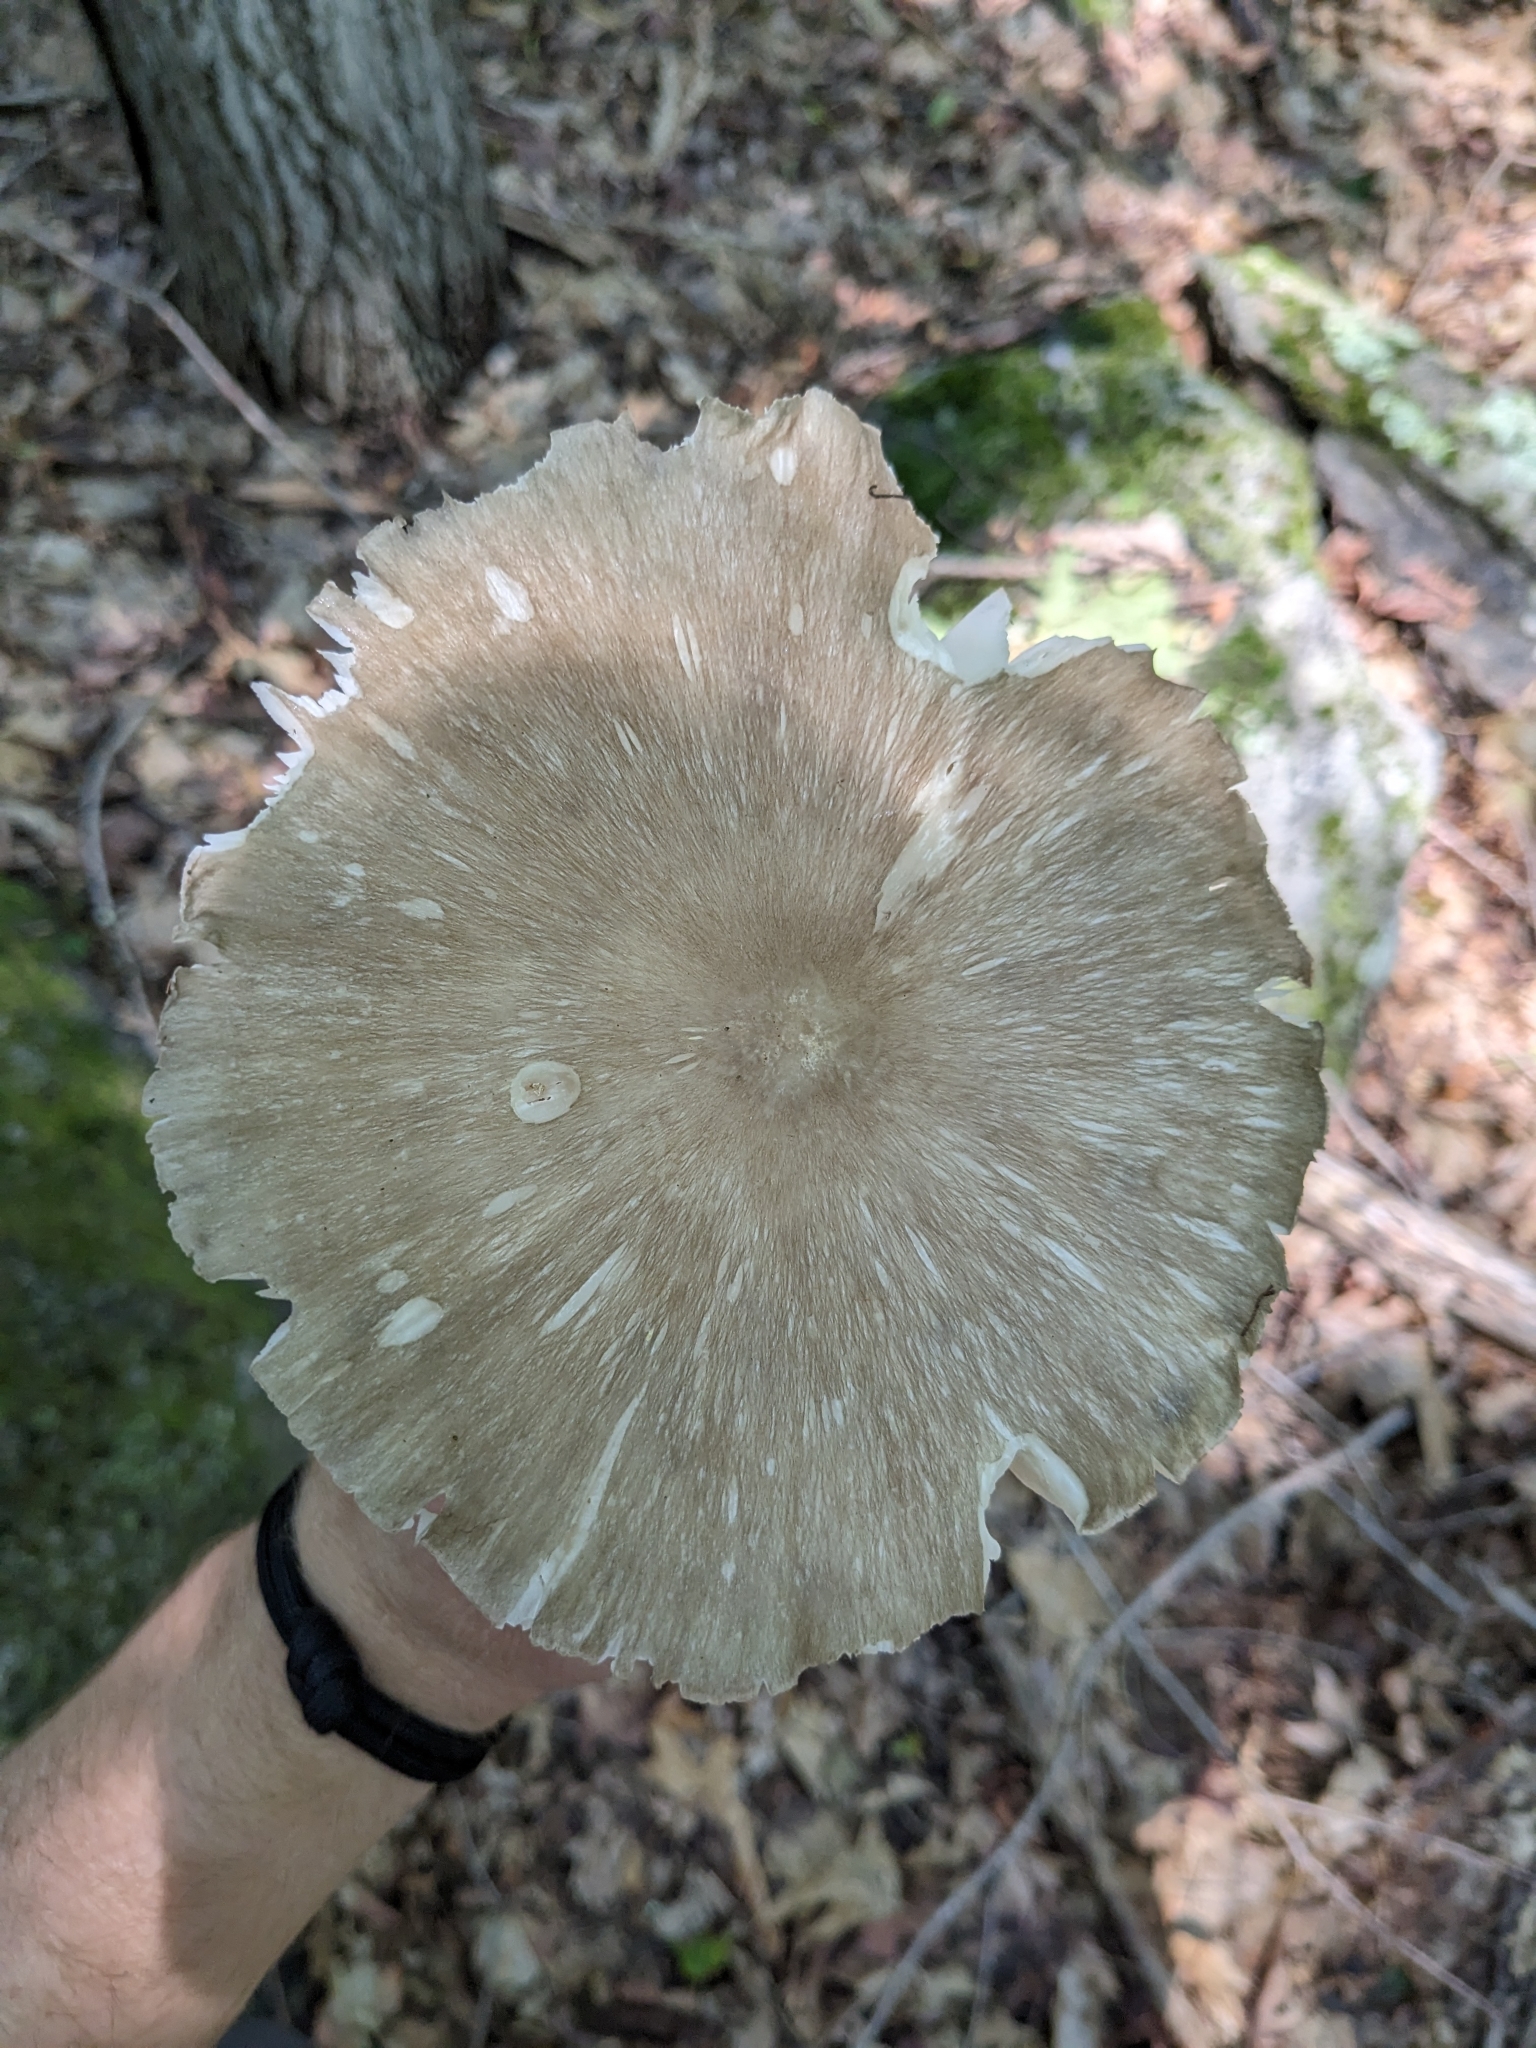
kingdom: Fungi
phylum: Basidiomycota
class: Agaricomycetes
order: Agaricales
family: Tricholomataceae
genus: Megacollybia
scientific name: Megacollybia rodmanii
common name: Eastern american platterful mushroom
